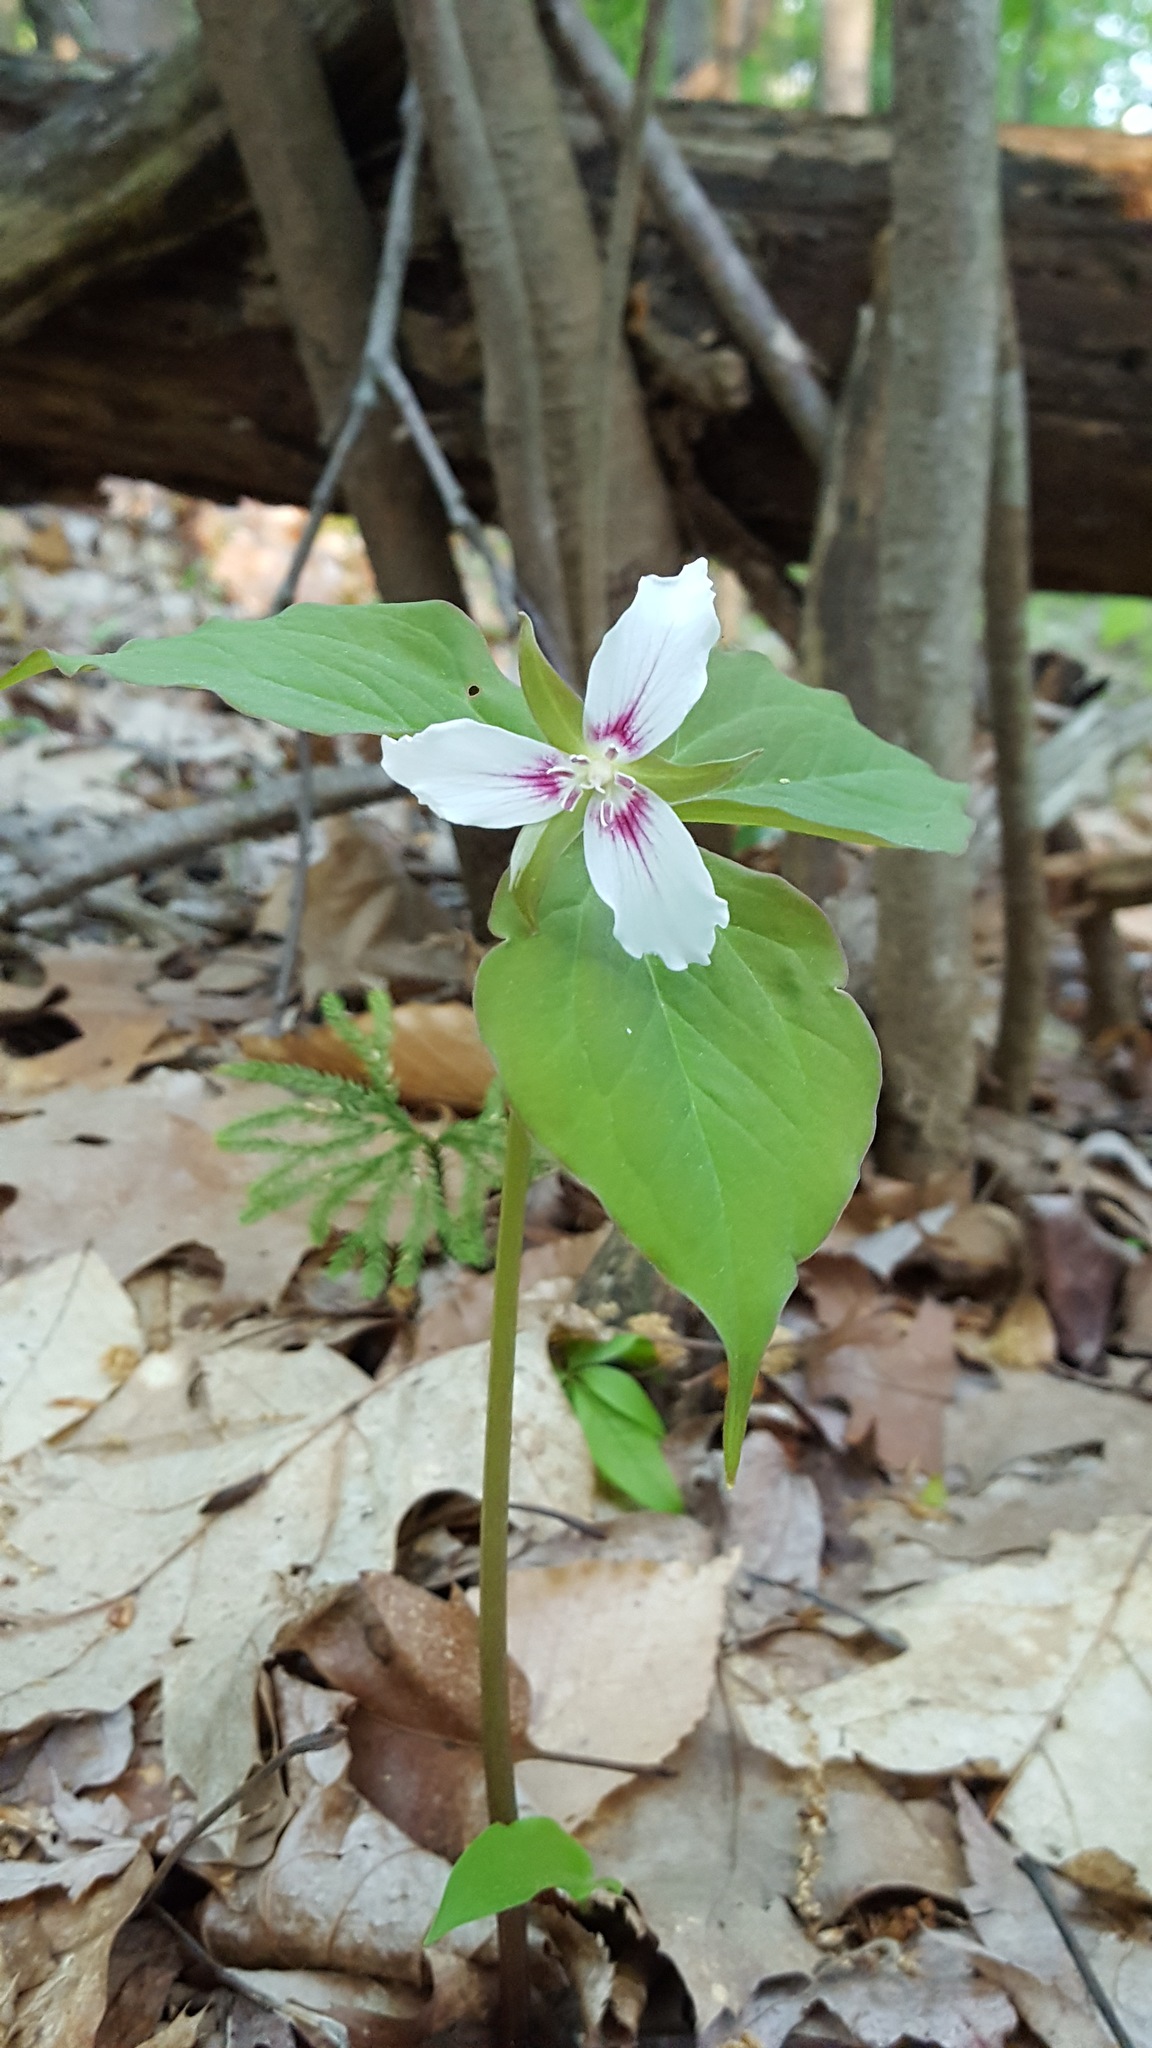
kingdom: Plantae
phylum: Tracheophyta
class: Liliopsida
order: Liliales
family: Melanthiaceae
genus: Trillium
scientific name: Trillium undulatum
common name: Paint trillium
